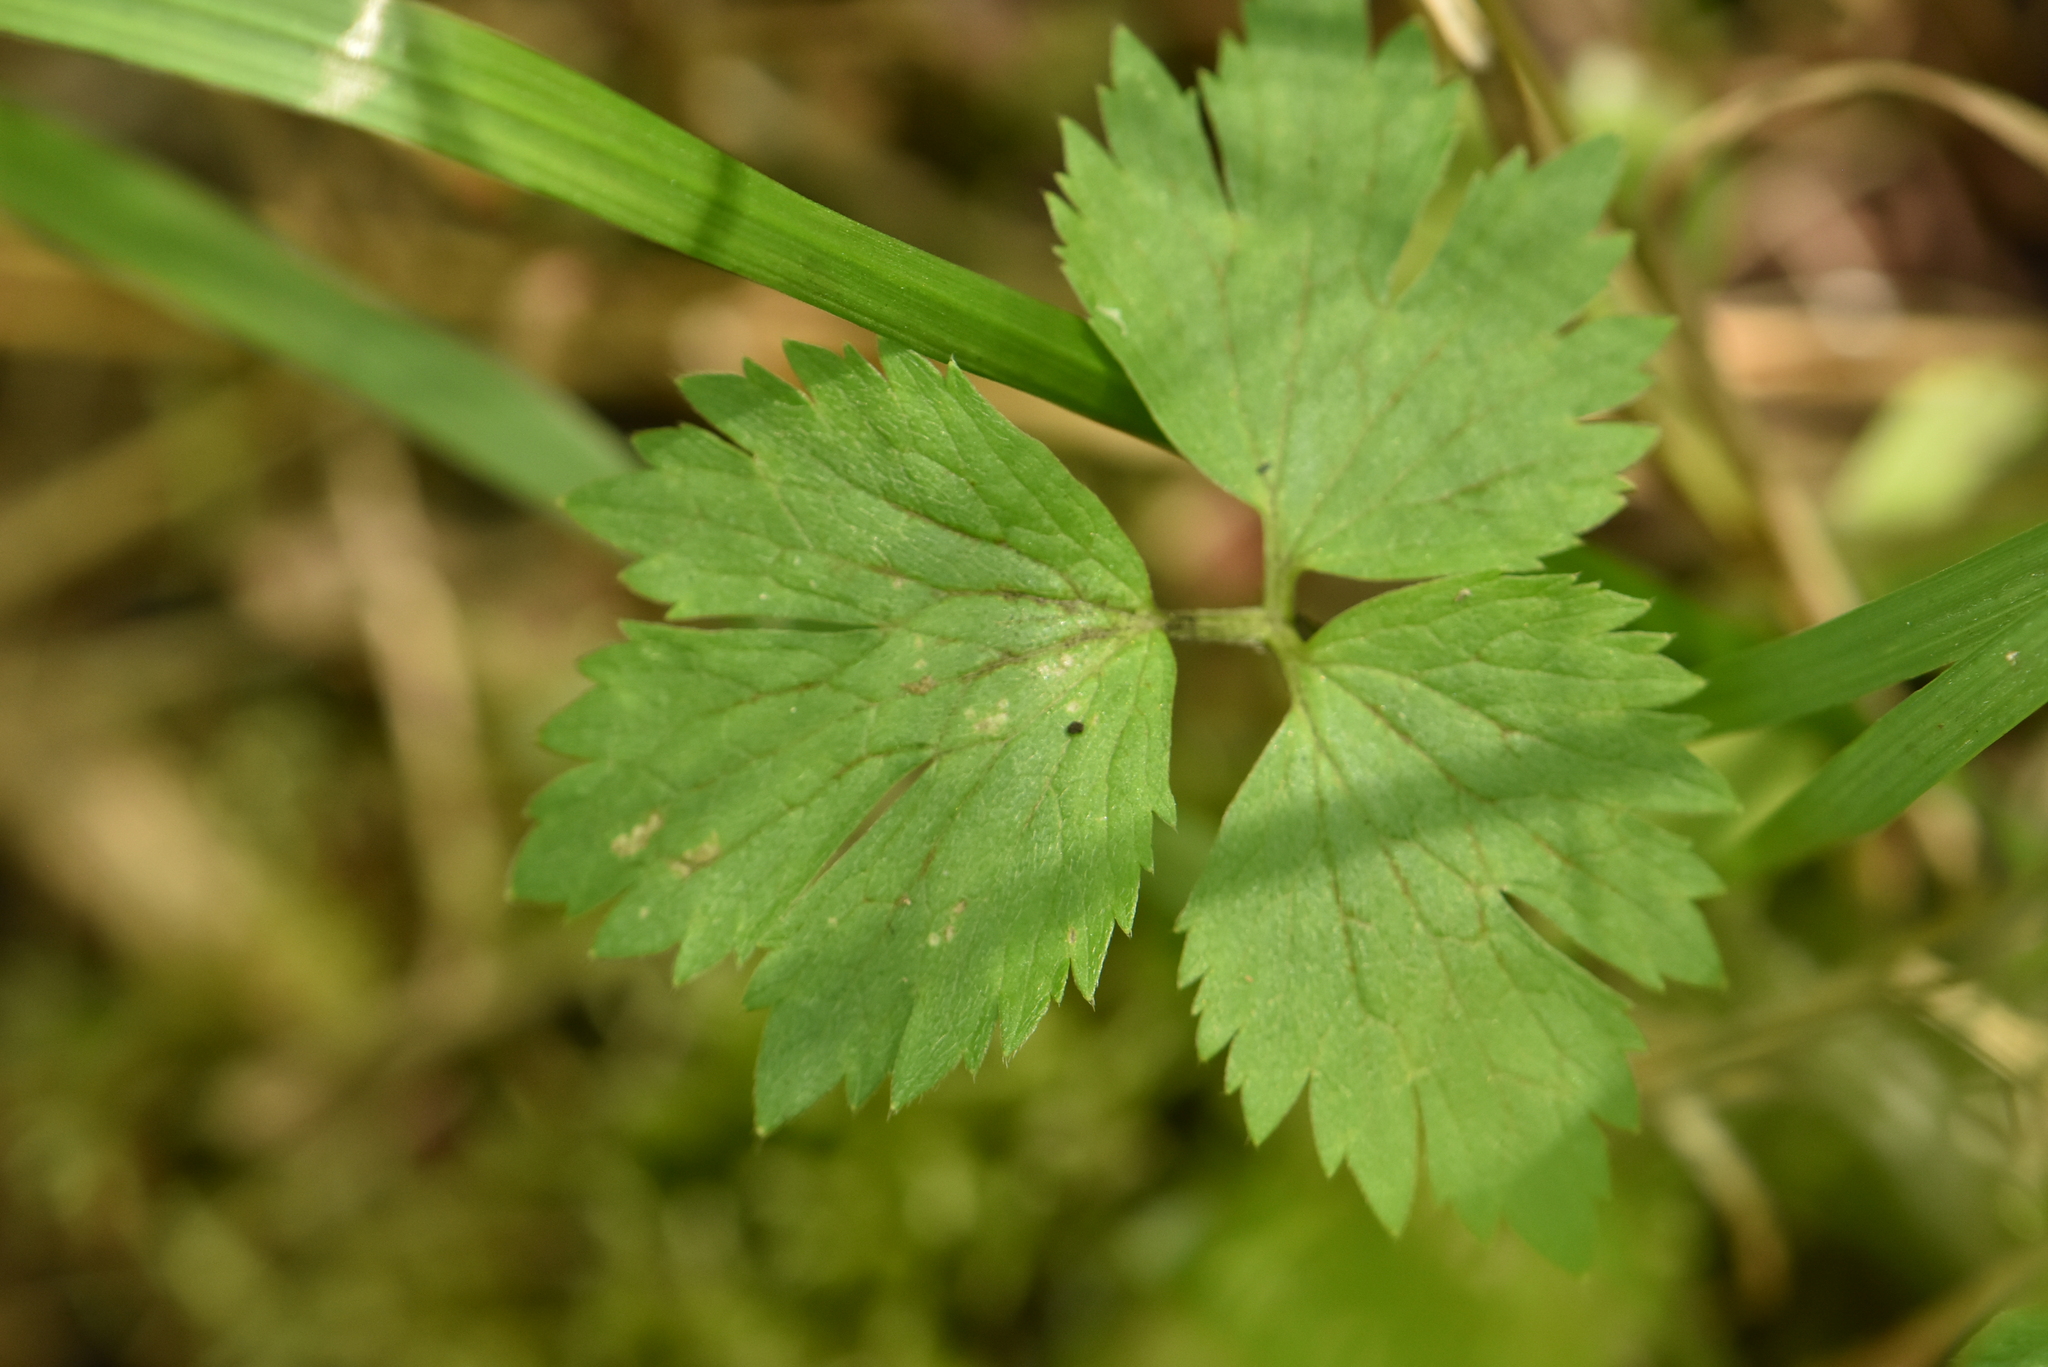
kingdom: Plantae
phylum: Tracheophyta
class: Magnoliopsida
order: Ranunculales
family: Ranunculaceae
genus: Ranunculus
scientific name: Ranunculus repens
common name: Creeping buttercup
